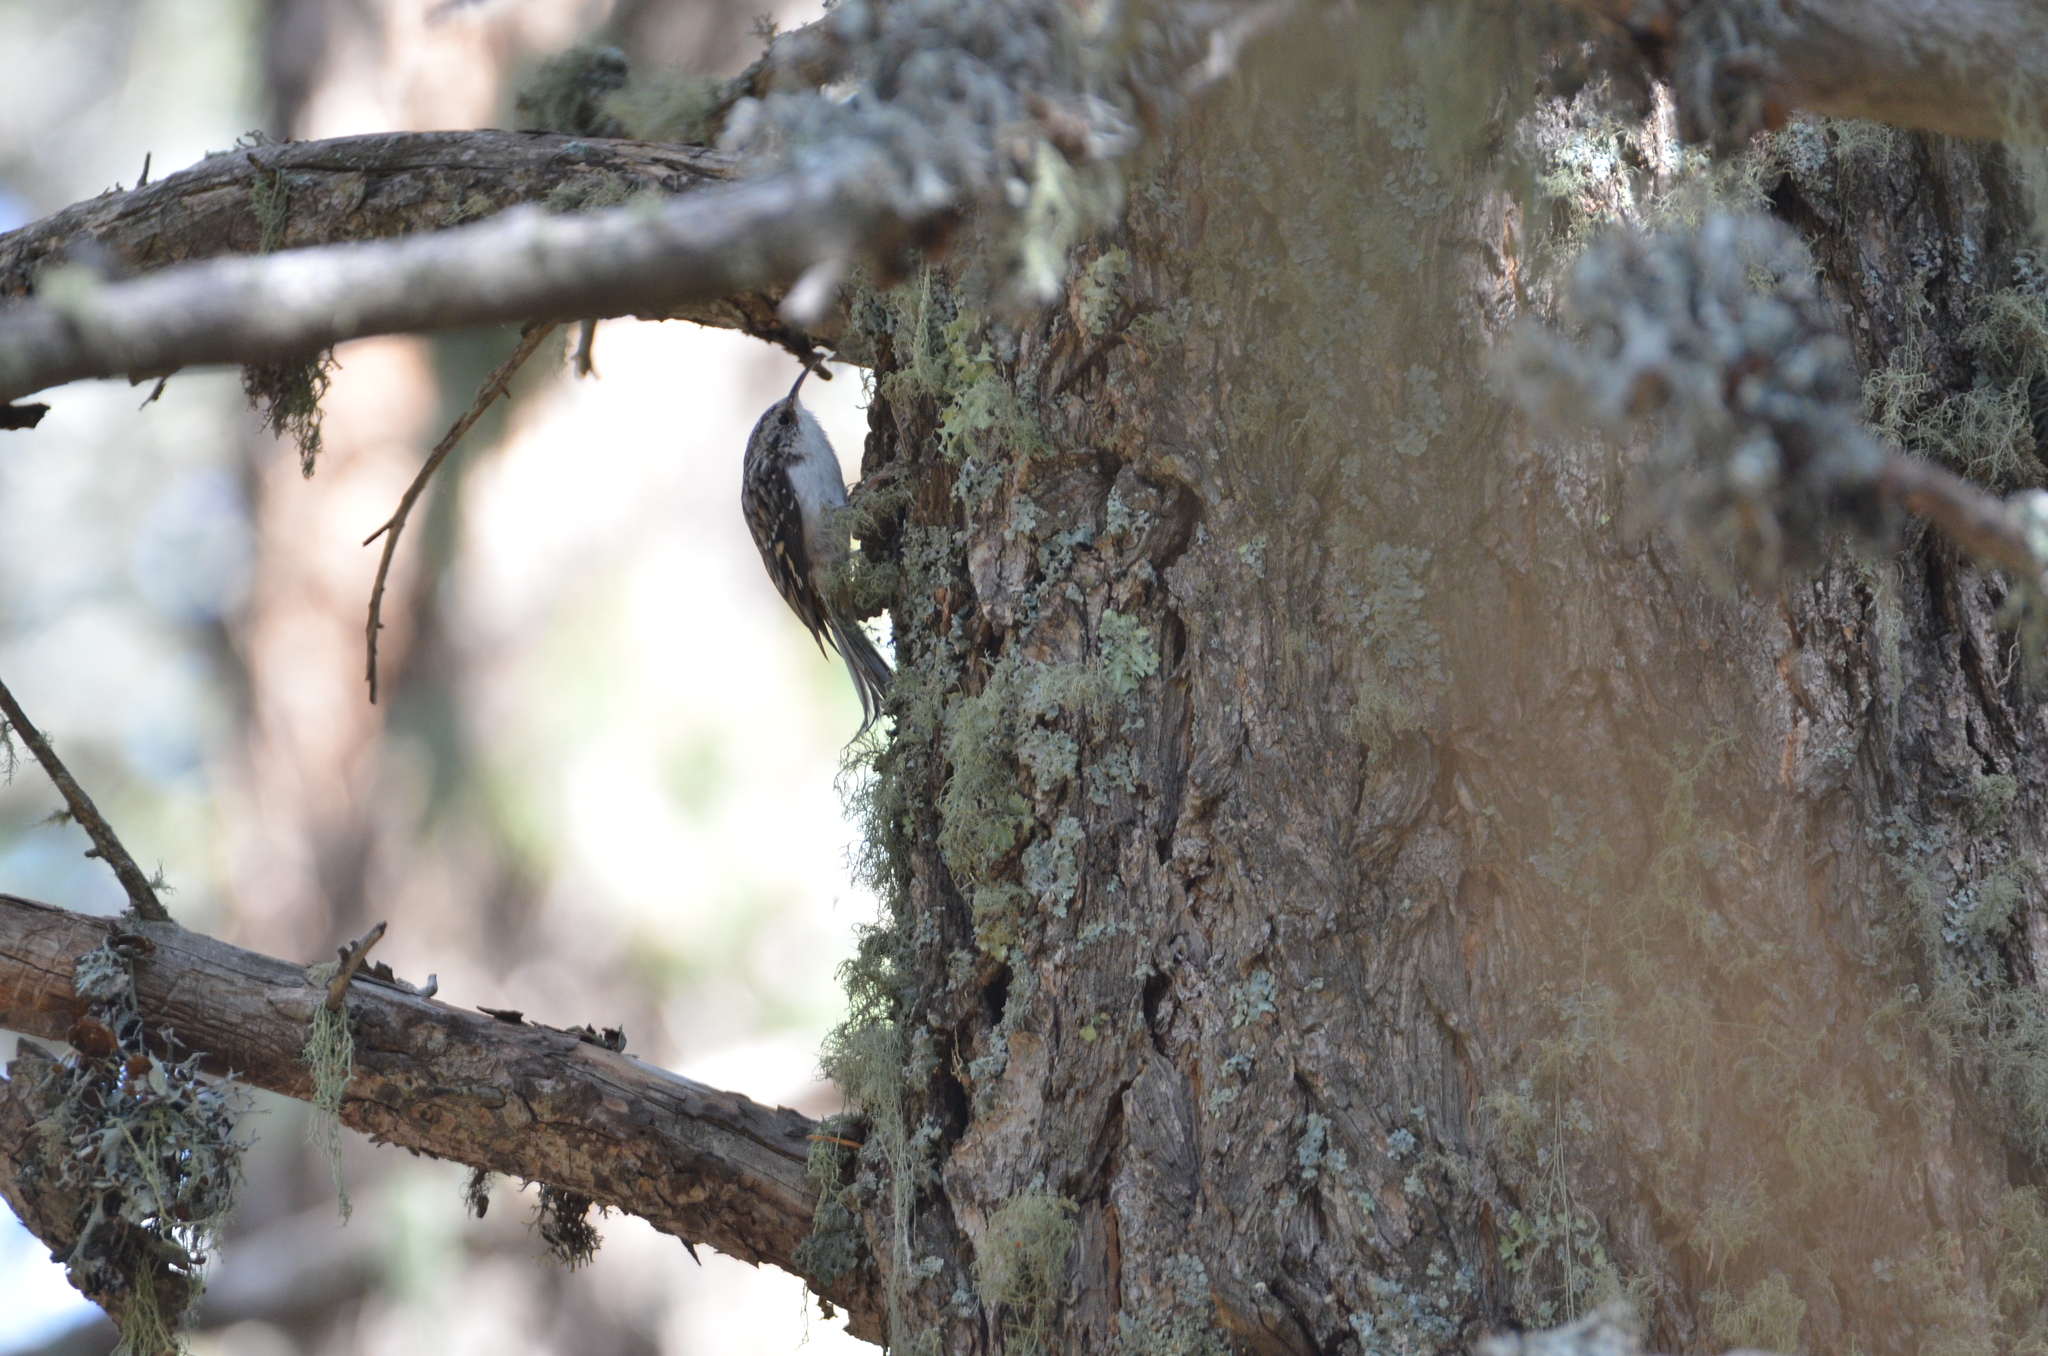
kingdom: Animalia
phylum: Chordata
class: Aves
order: Passeriformes
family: Certhiidae
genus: Certhia
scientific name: Certhia americana
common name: Brown creeper
